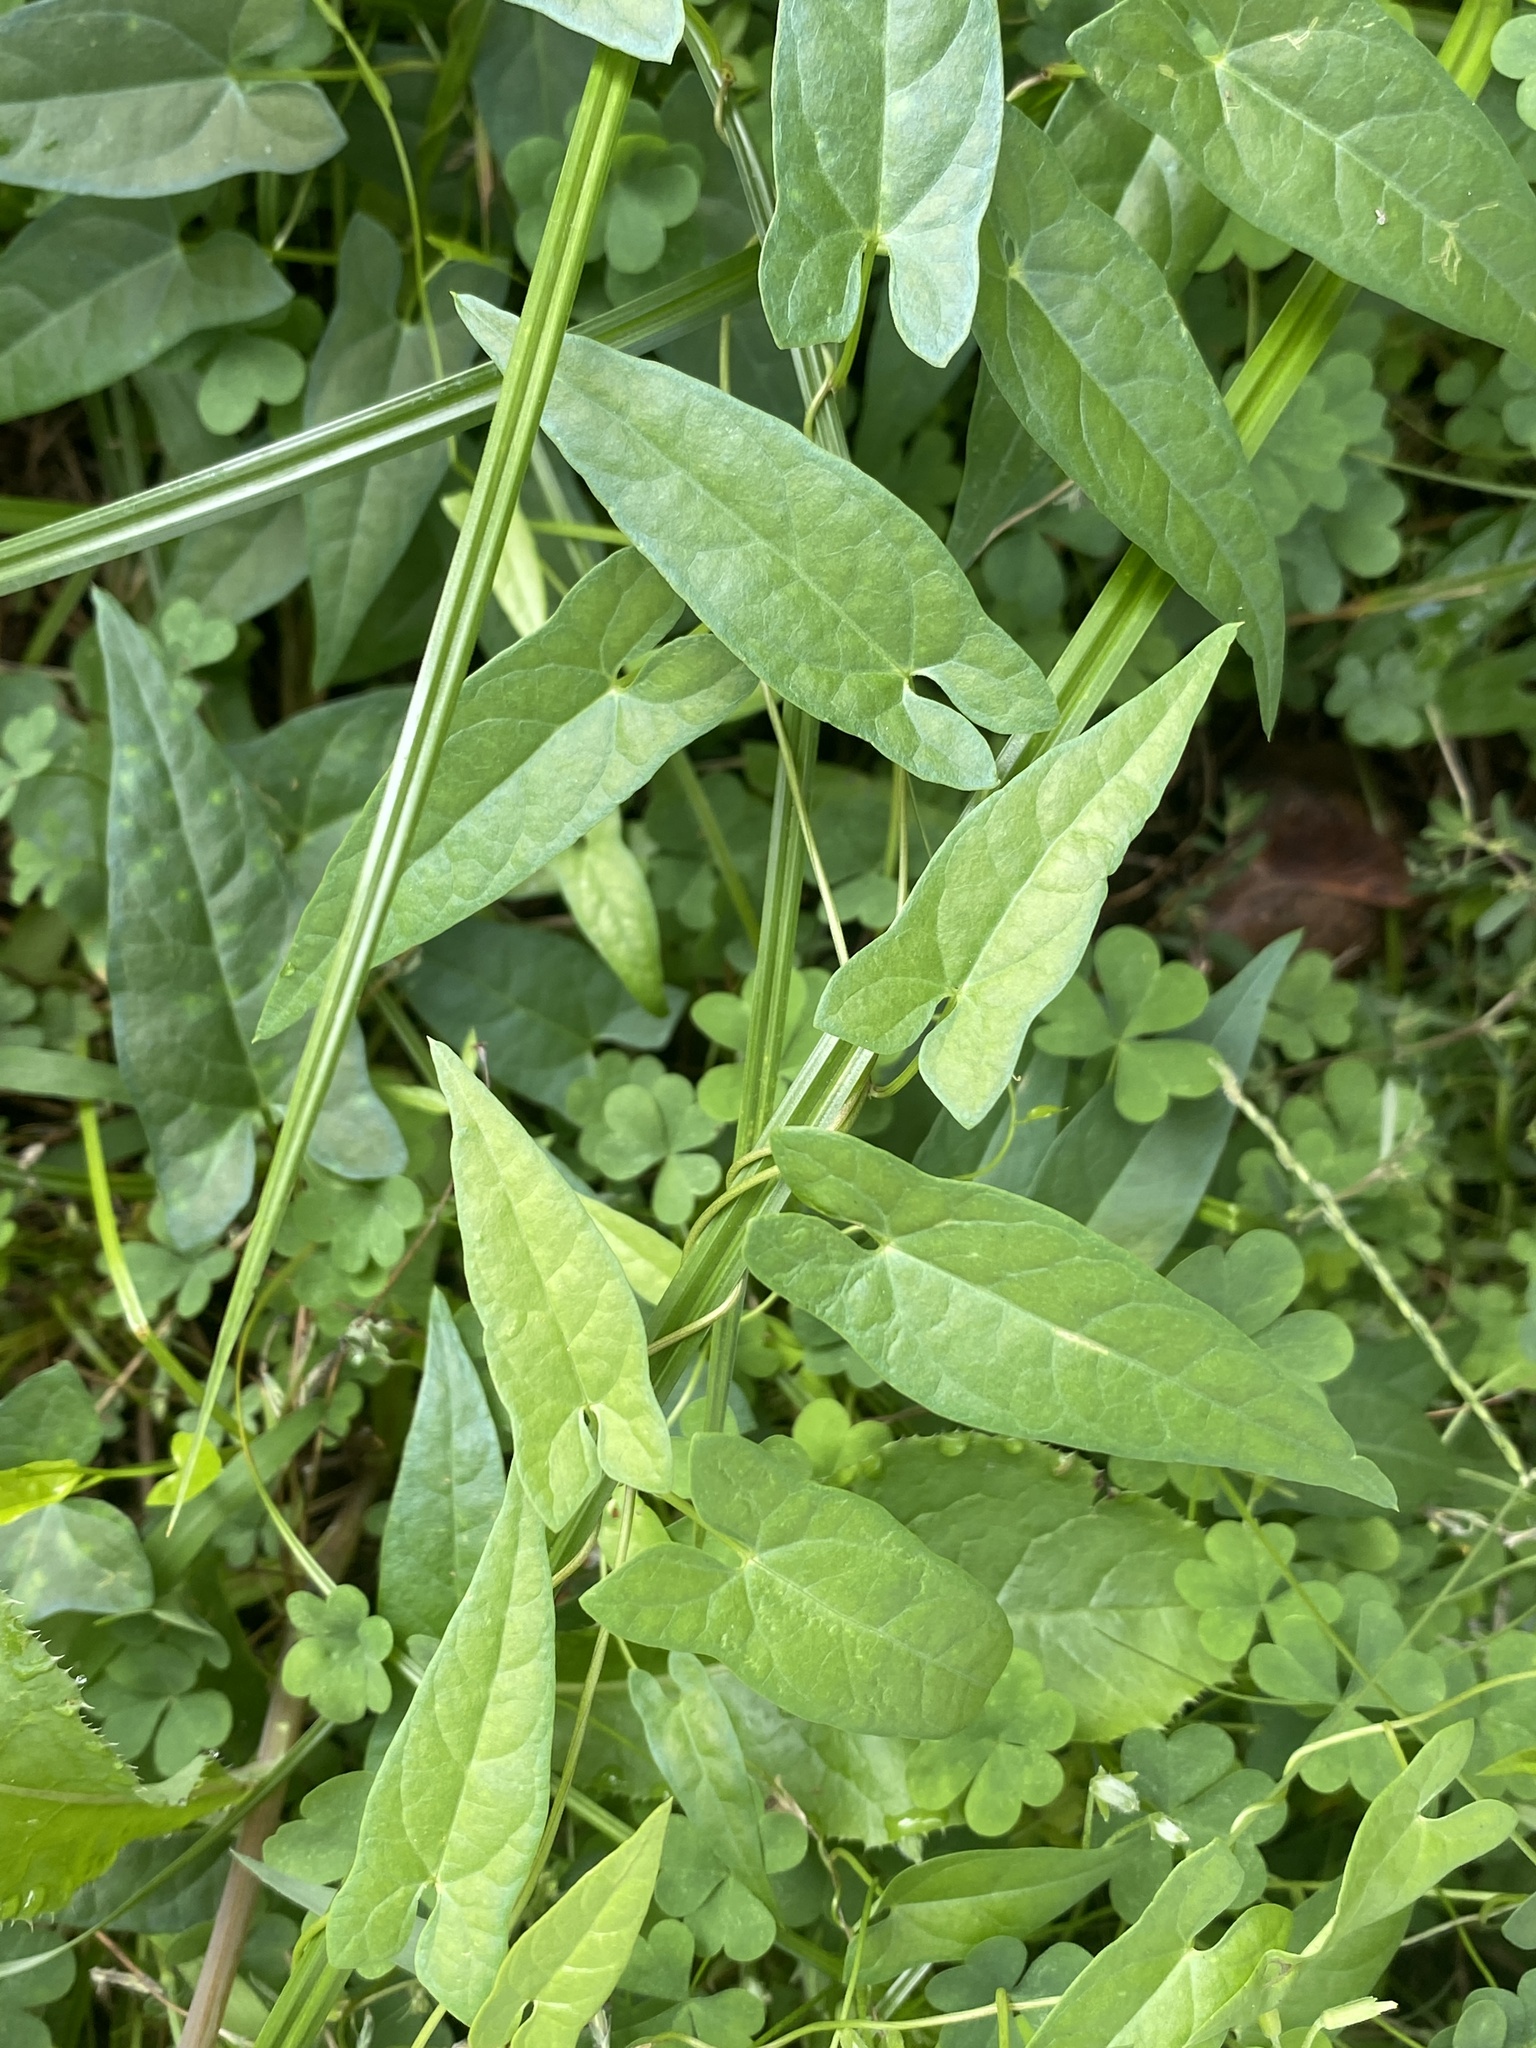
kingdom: Plantae
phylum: Tracheophyta
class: Magnoliopsida
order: Solanales
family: Convolvulaceae
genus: Calystegia
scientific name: Calystegia sepium
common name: Hedge bindweed
